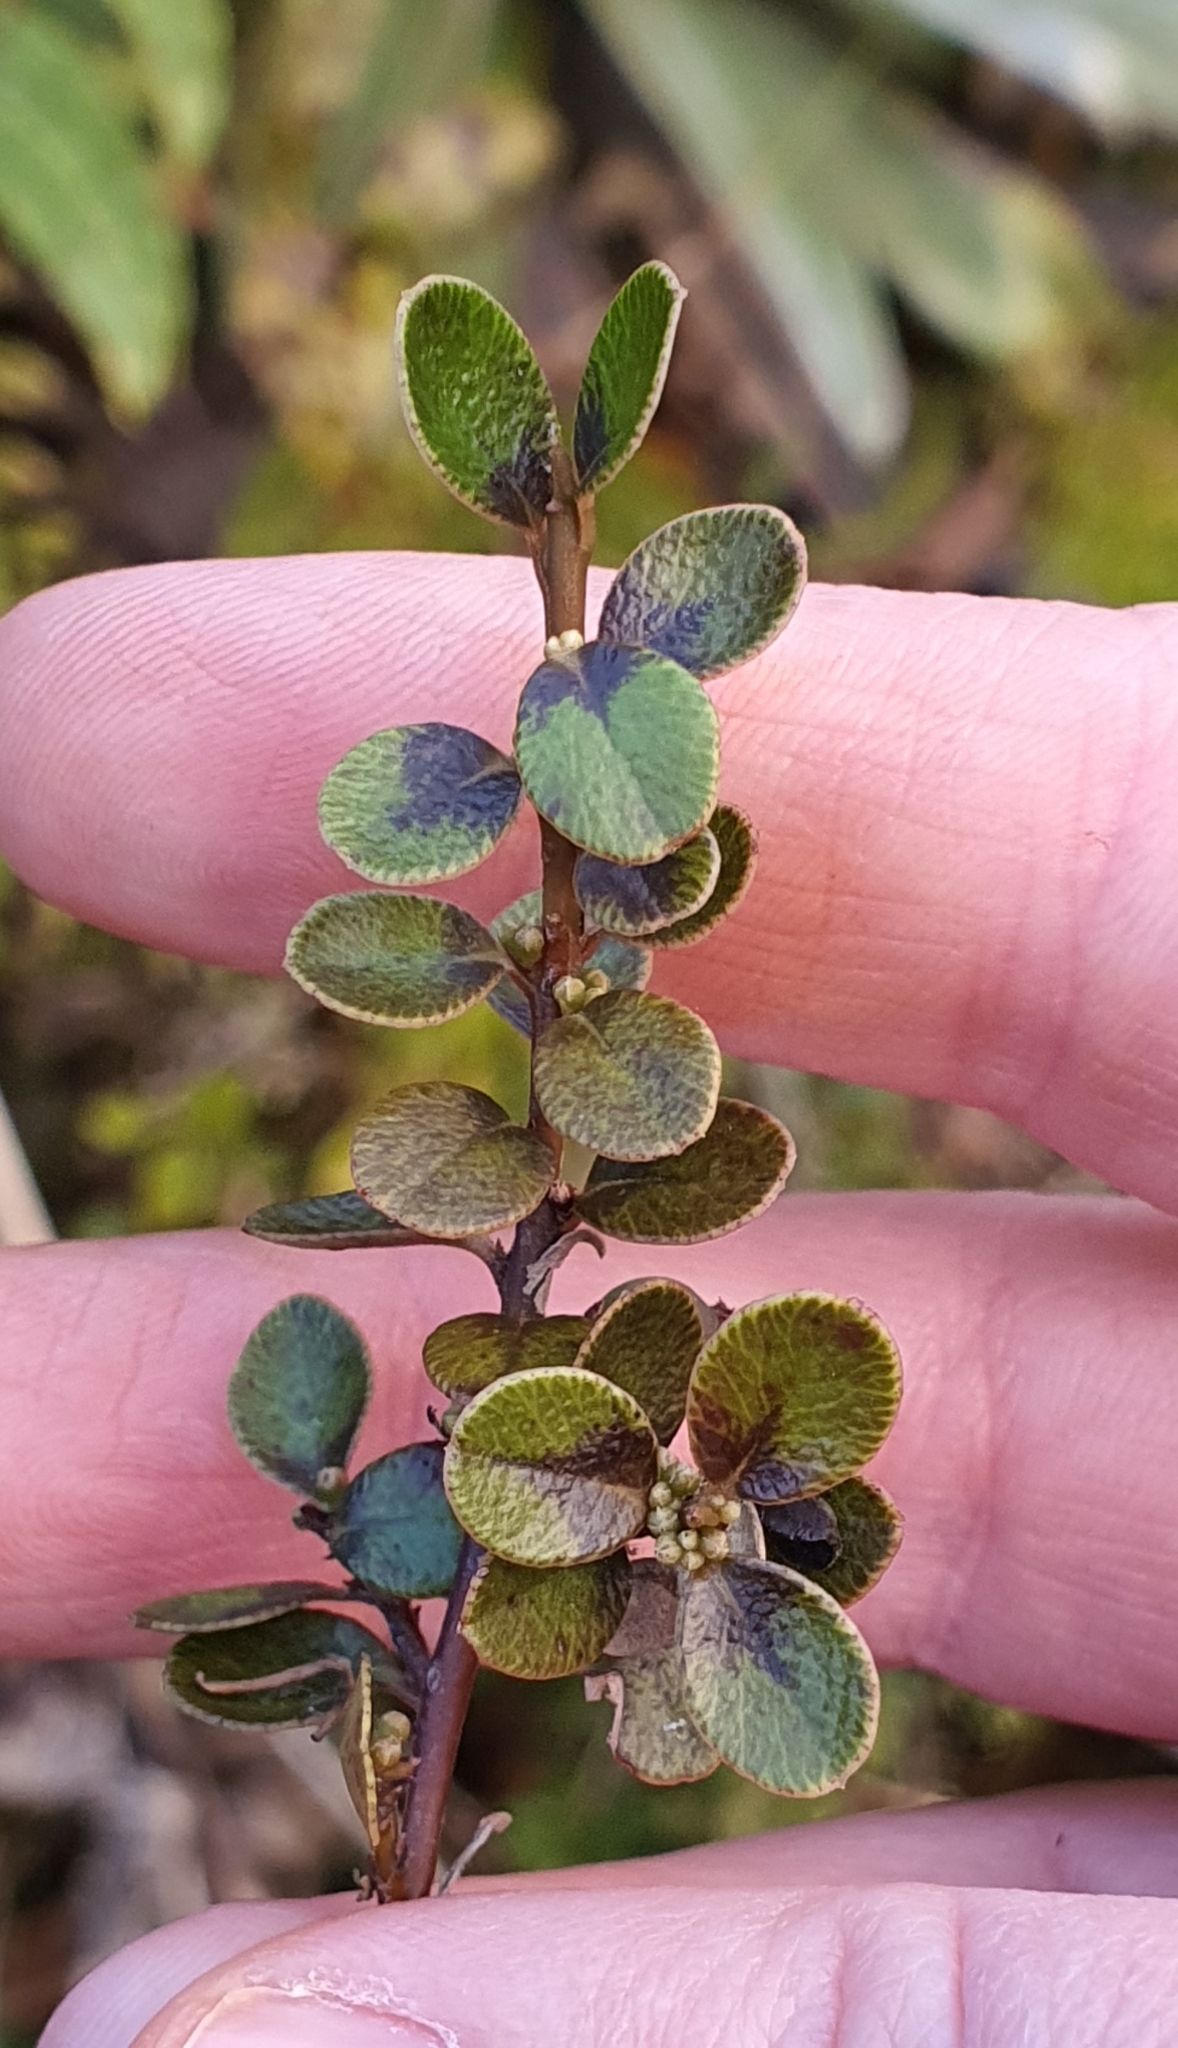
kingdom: Plantae
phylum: Tracheophyta
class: Magnoliopsida
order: Ericales
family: Primulaceae
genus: Myrsine
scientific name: Myrsine nummularia
